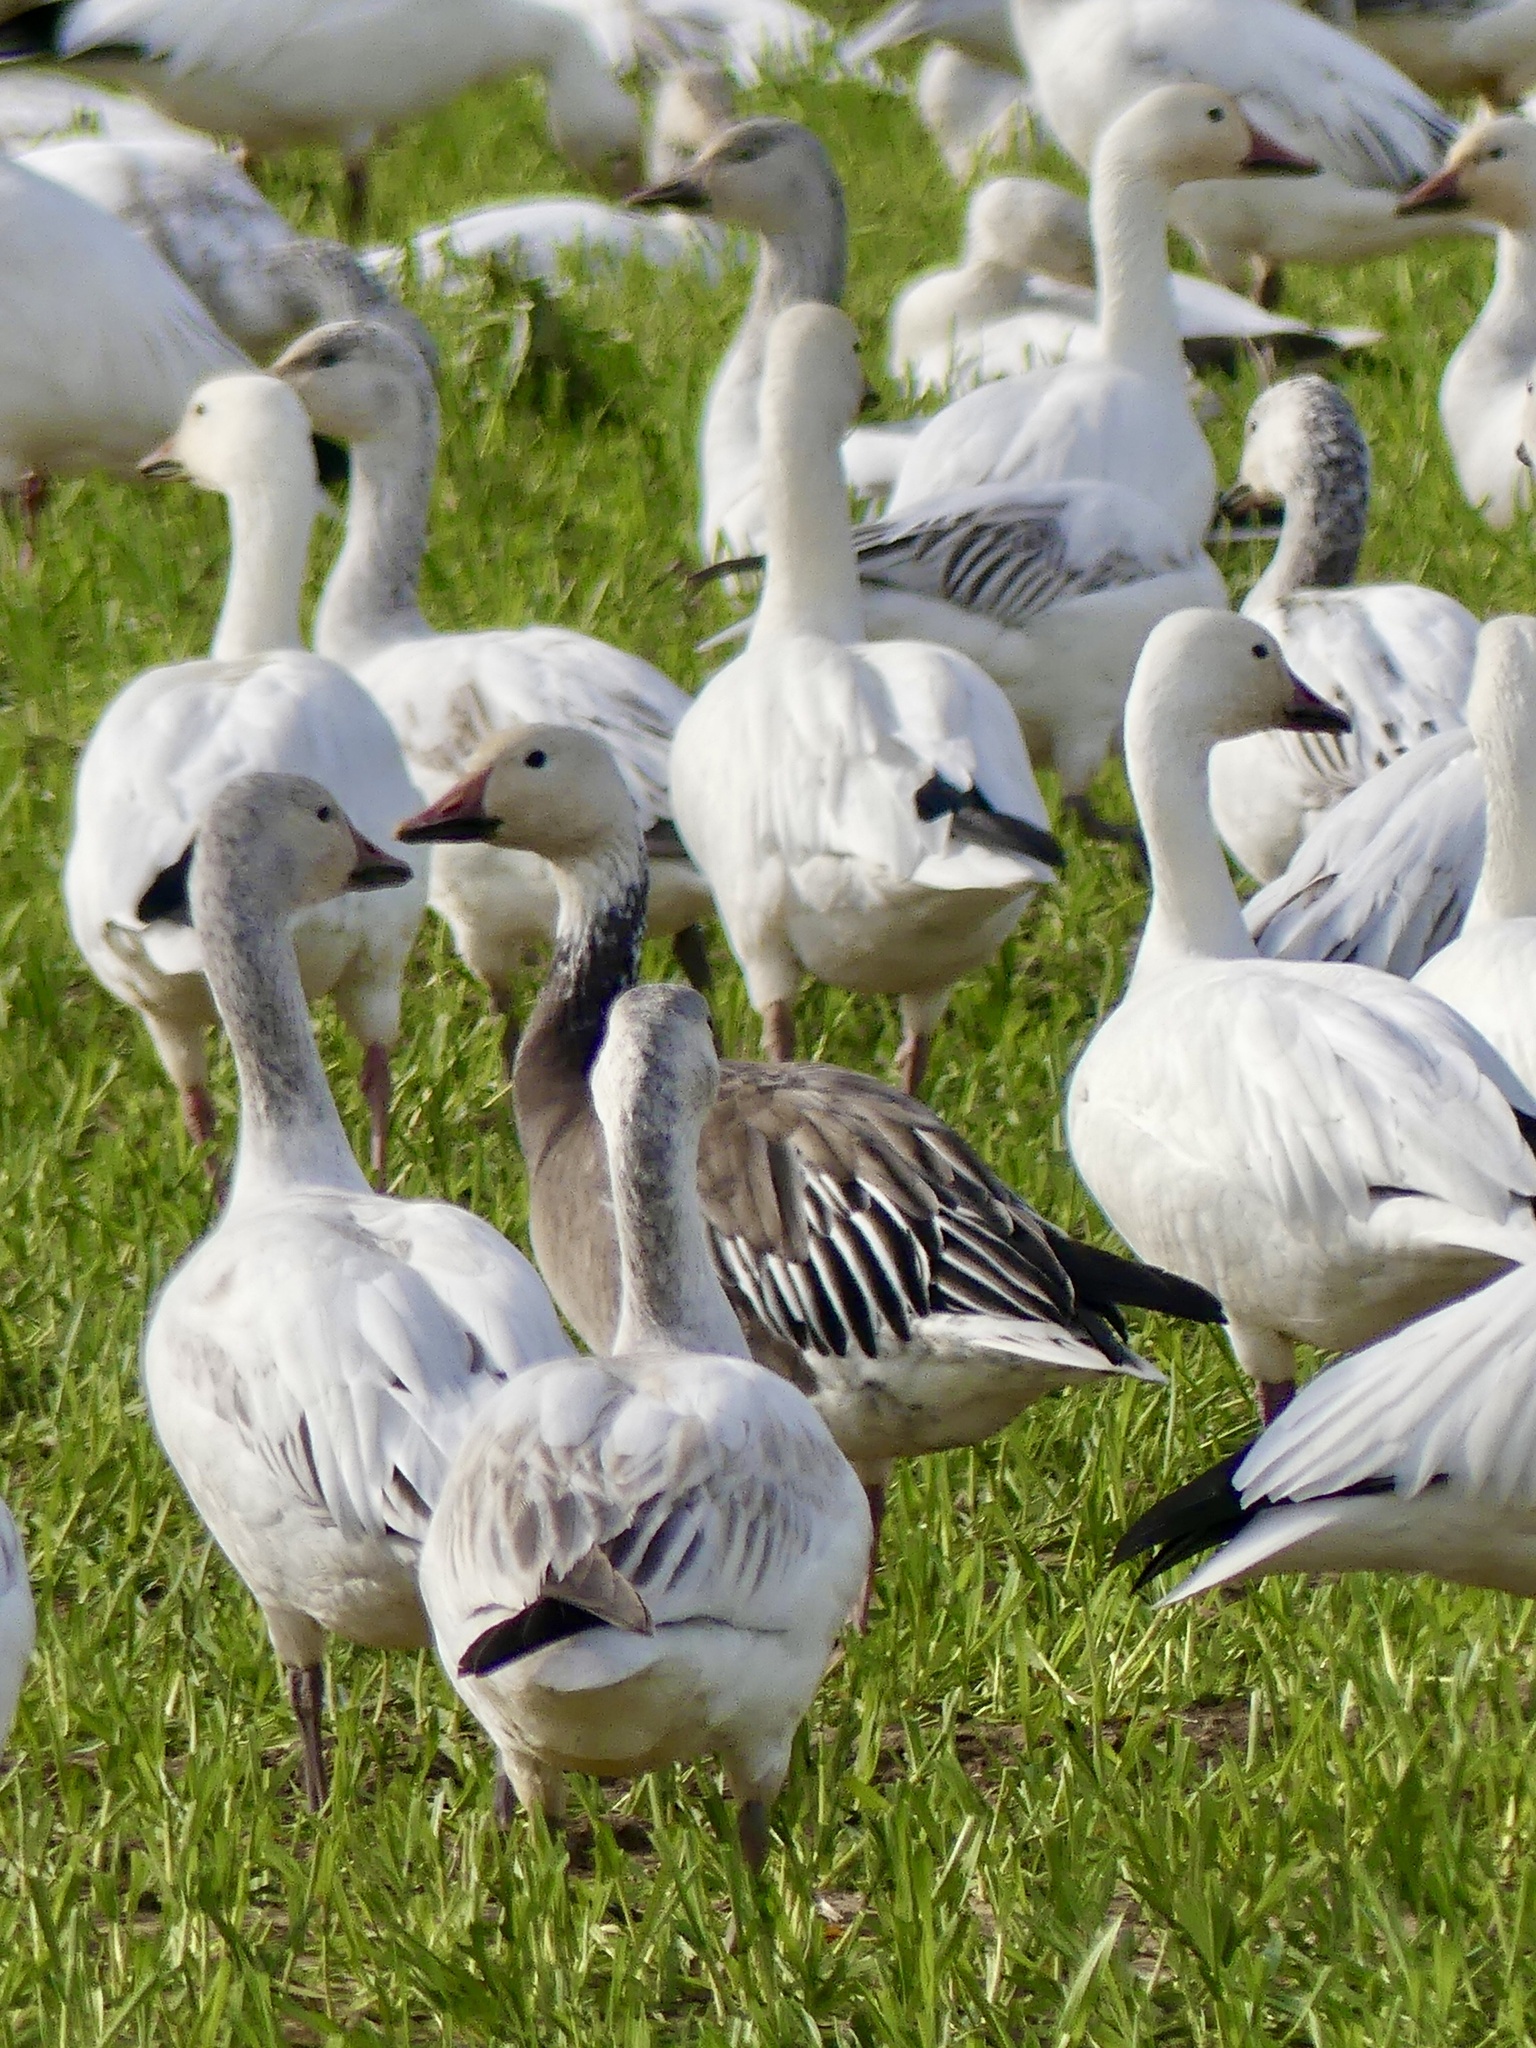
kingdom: Animalia
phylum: Chordata
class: Aves
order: Anseriformes
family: Anatidae
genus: Anser
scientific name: Anser caerulescens
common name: Snow goose
